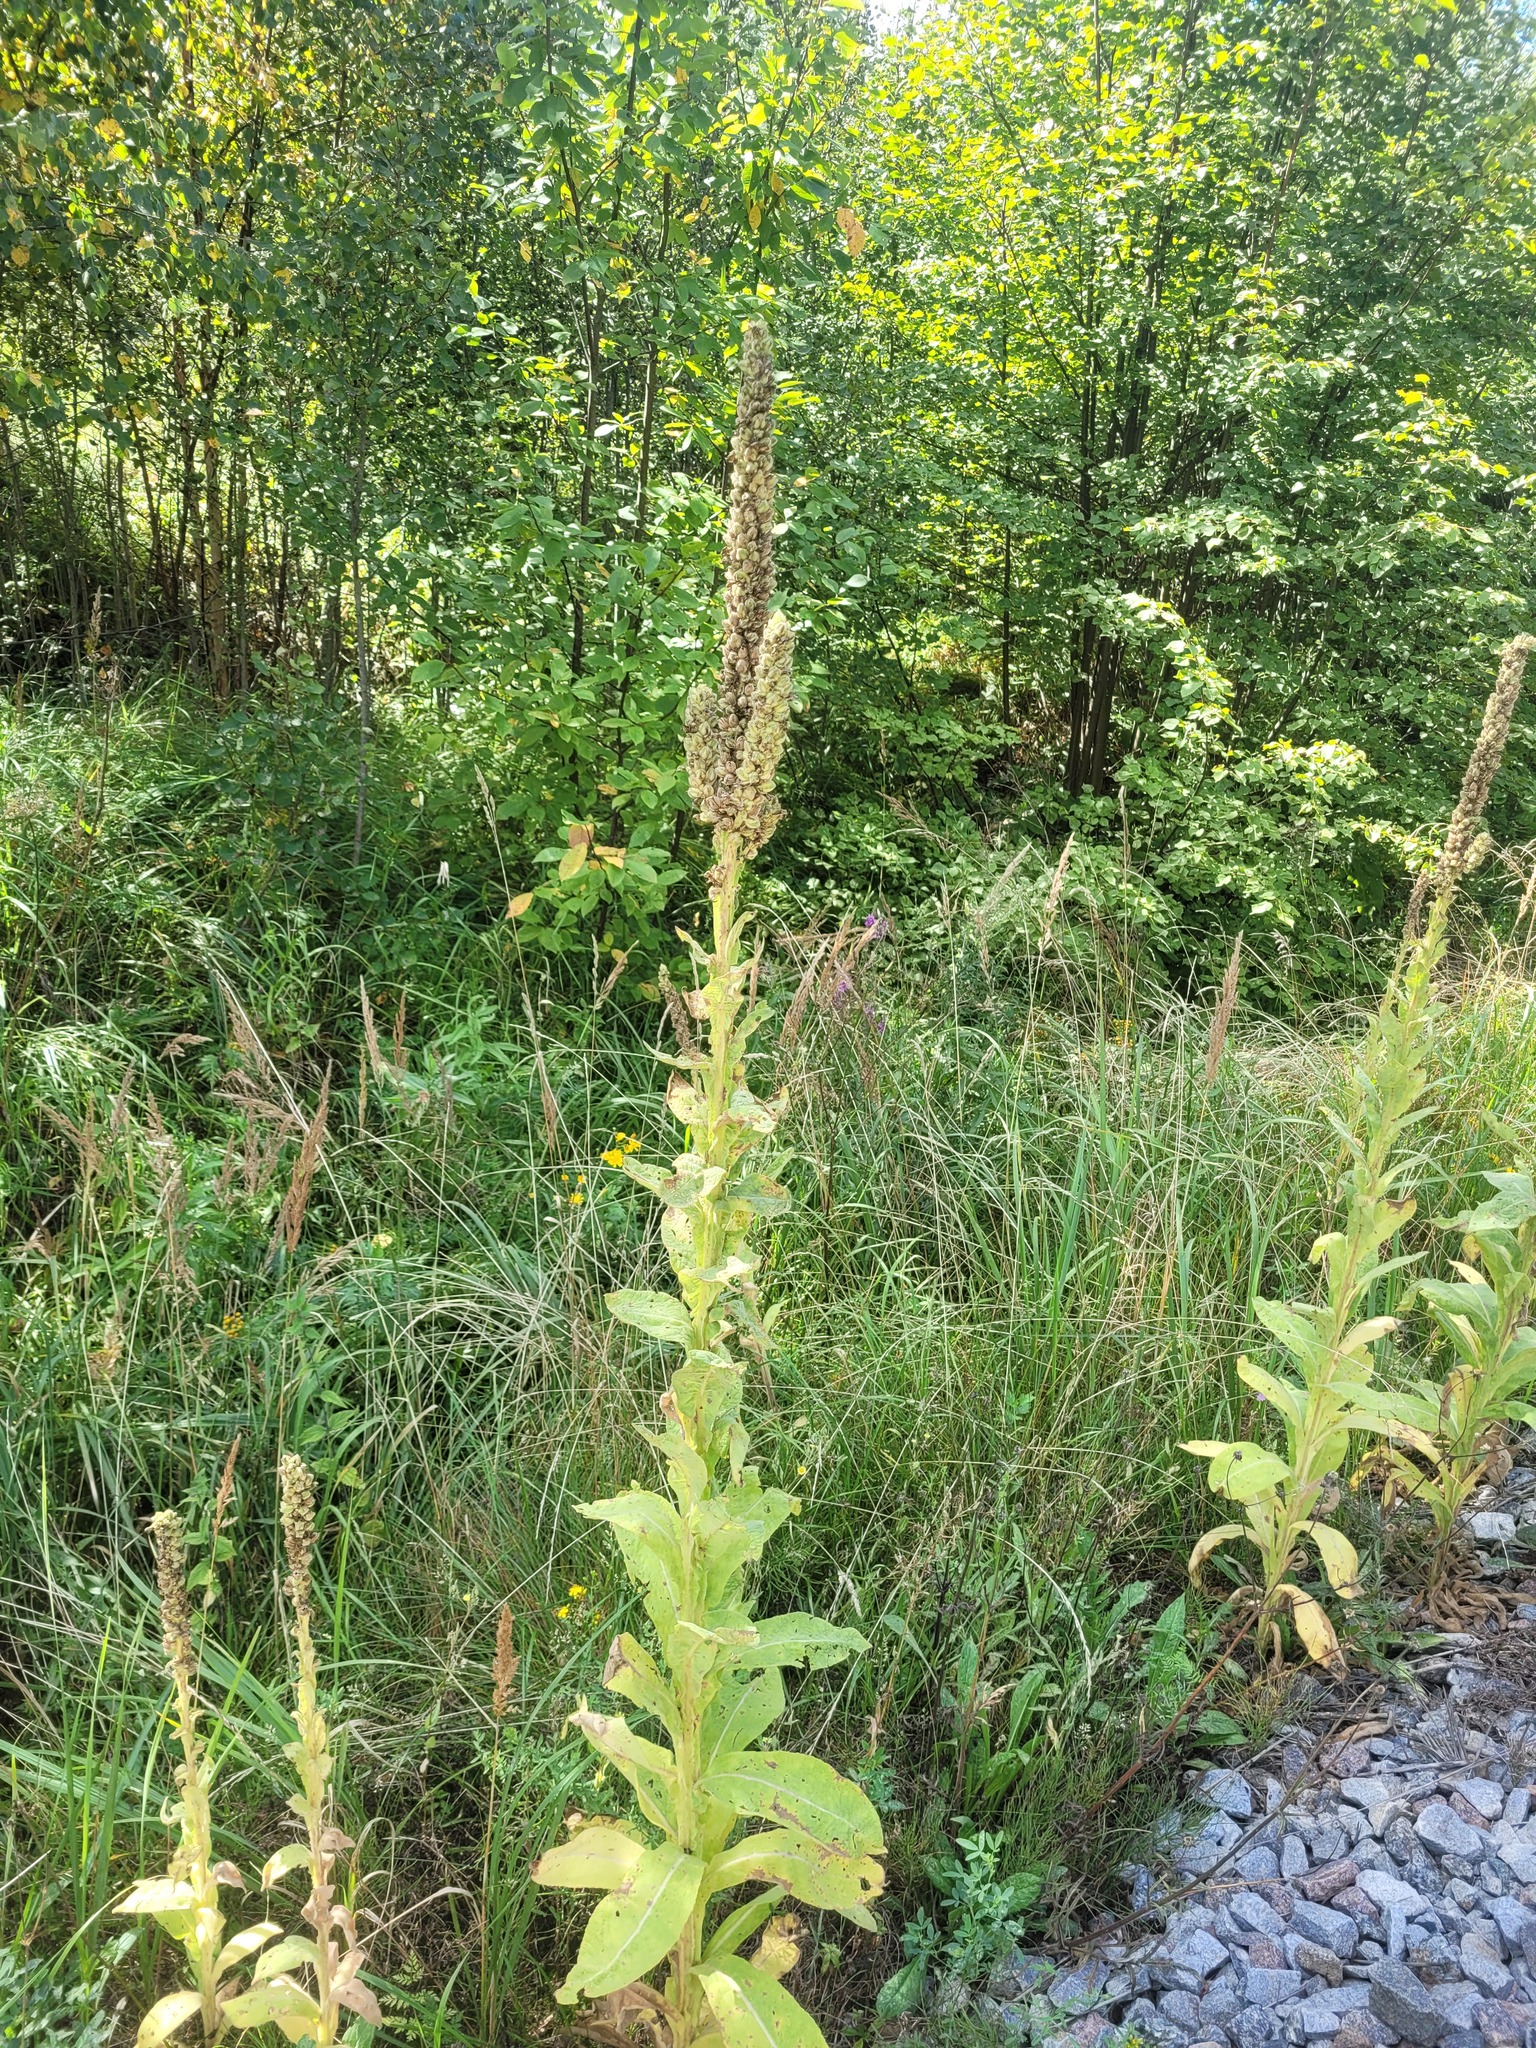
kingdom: Plantae
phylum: Tracheophyta
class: Magnoliopsida
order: Lamiales
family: Scrophulariaceae
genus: Verbascum
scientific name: Verbascum thapsus
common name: Common mullein
